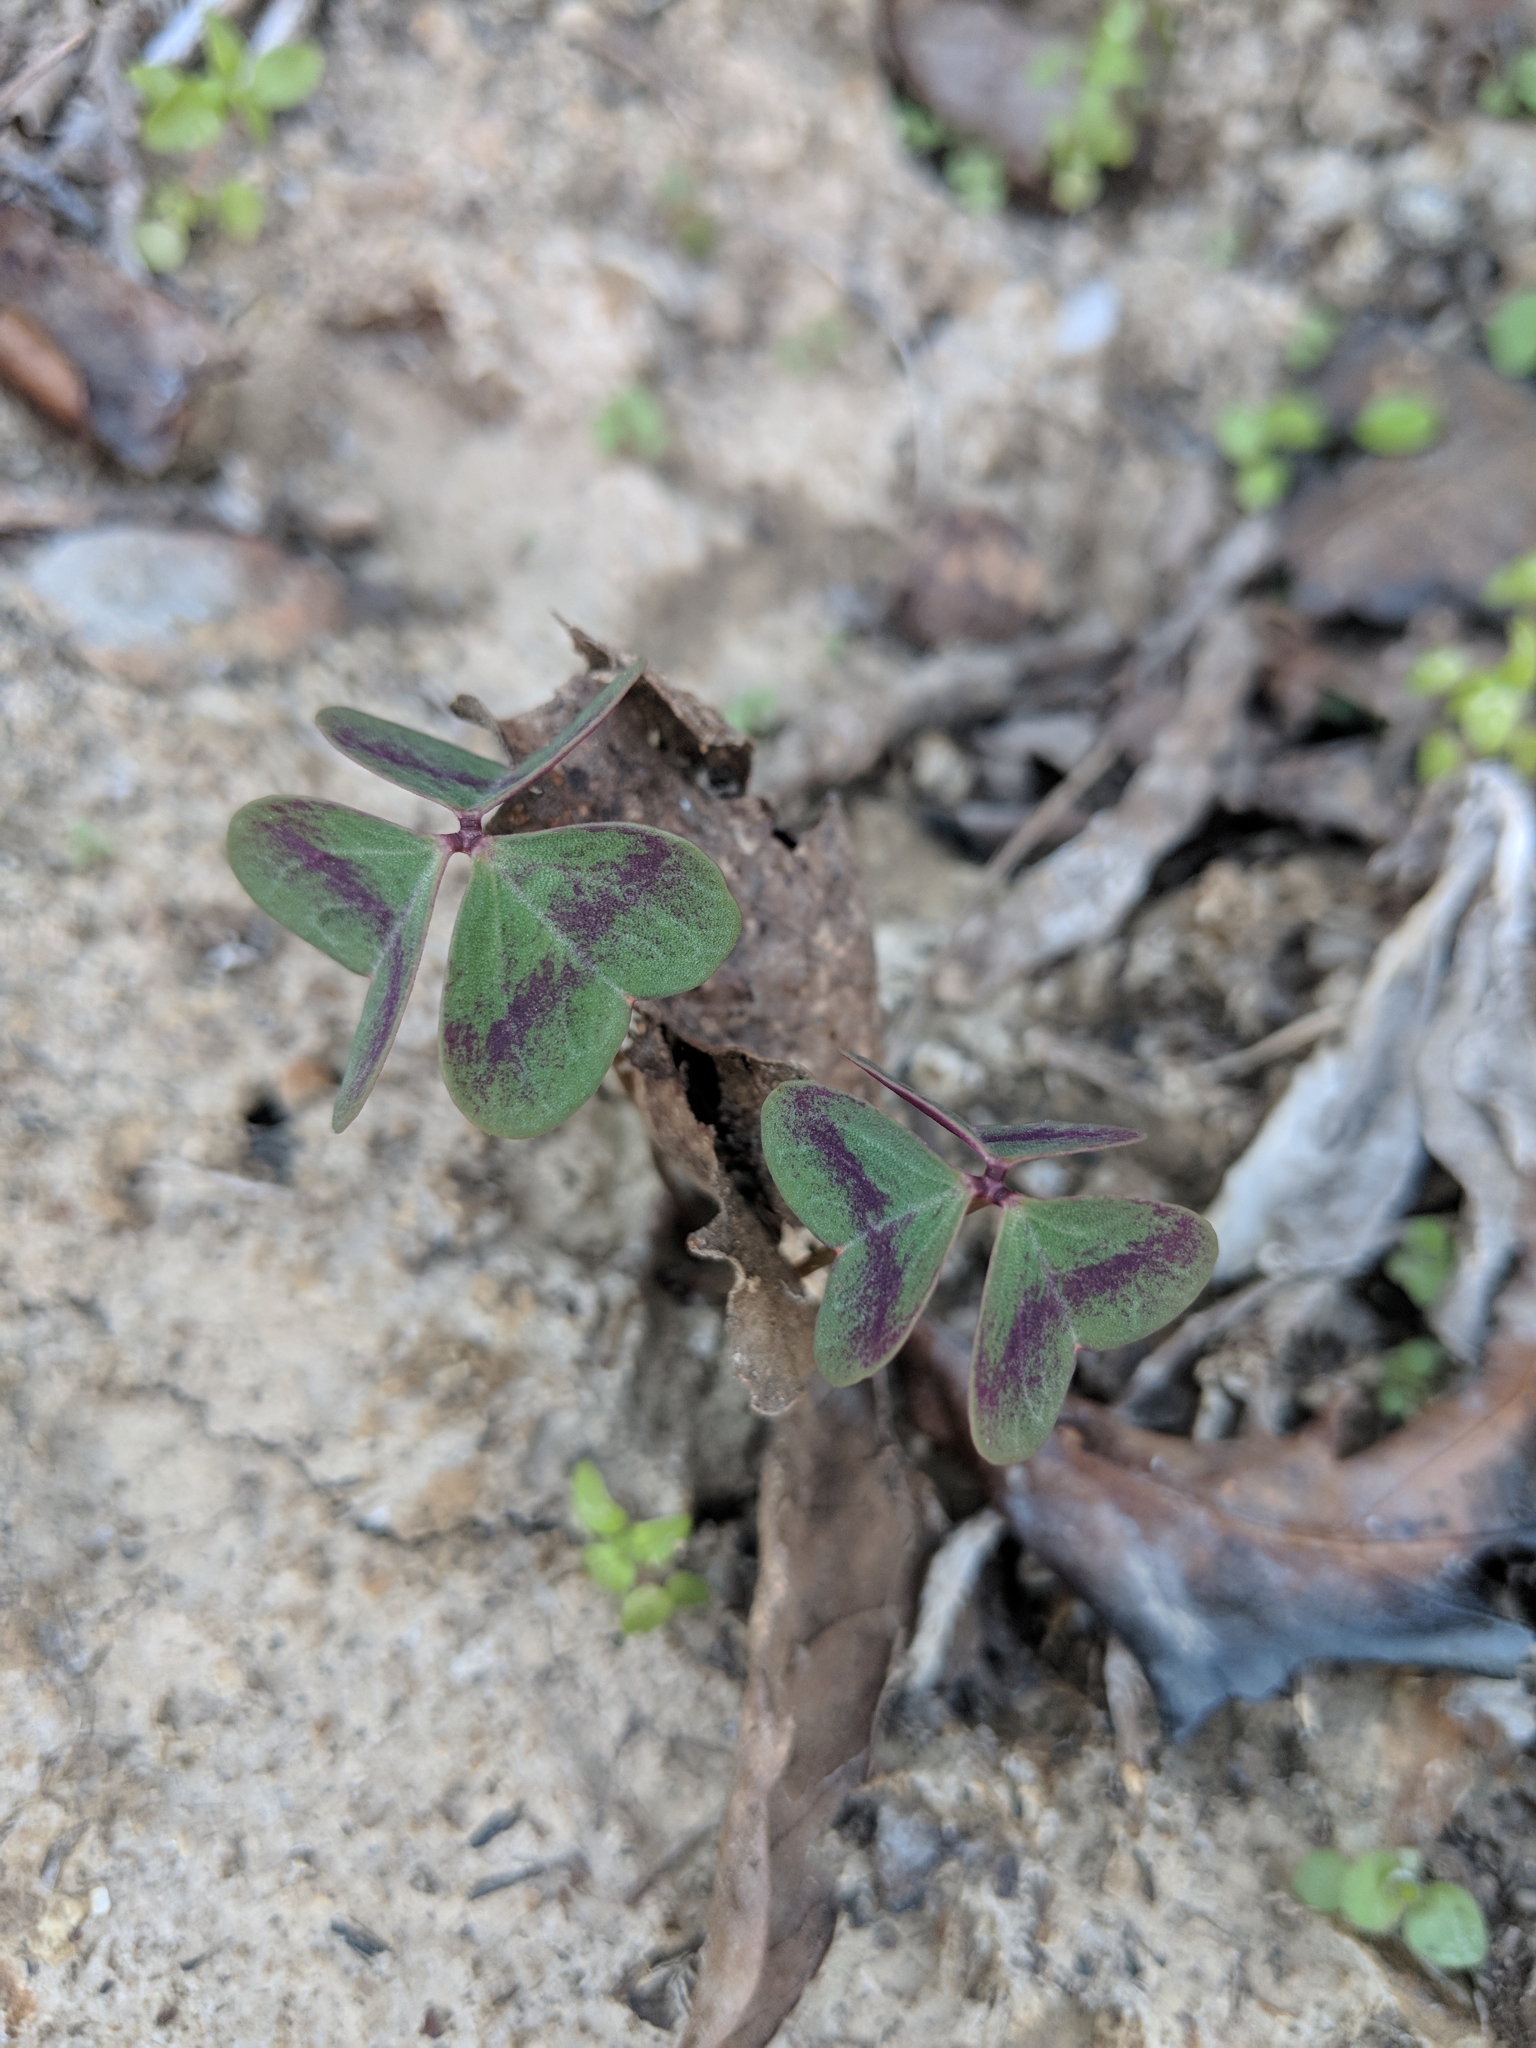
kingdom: Plantae
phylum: Tracheophyta
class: Magnoliopsida
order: Oxalidales
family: Oxalidaceae
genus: Oxalis
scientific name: Oxalis violacea
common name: Violet wood-sorrel
